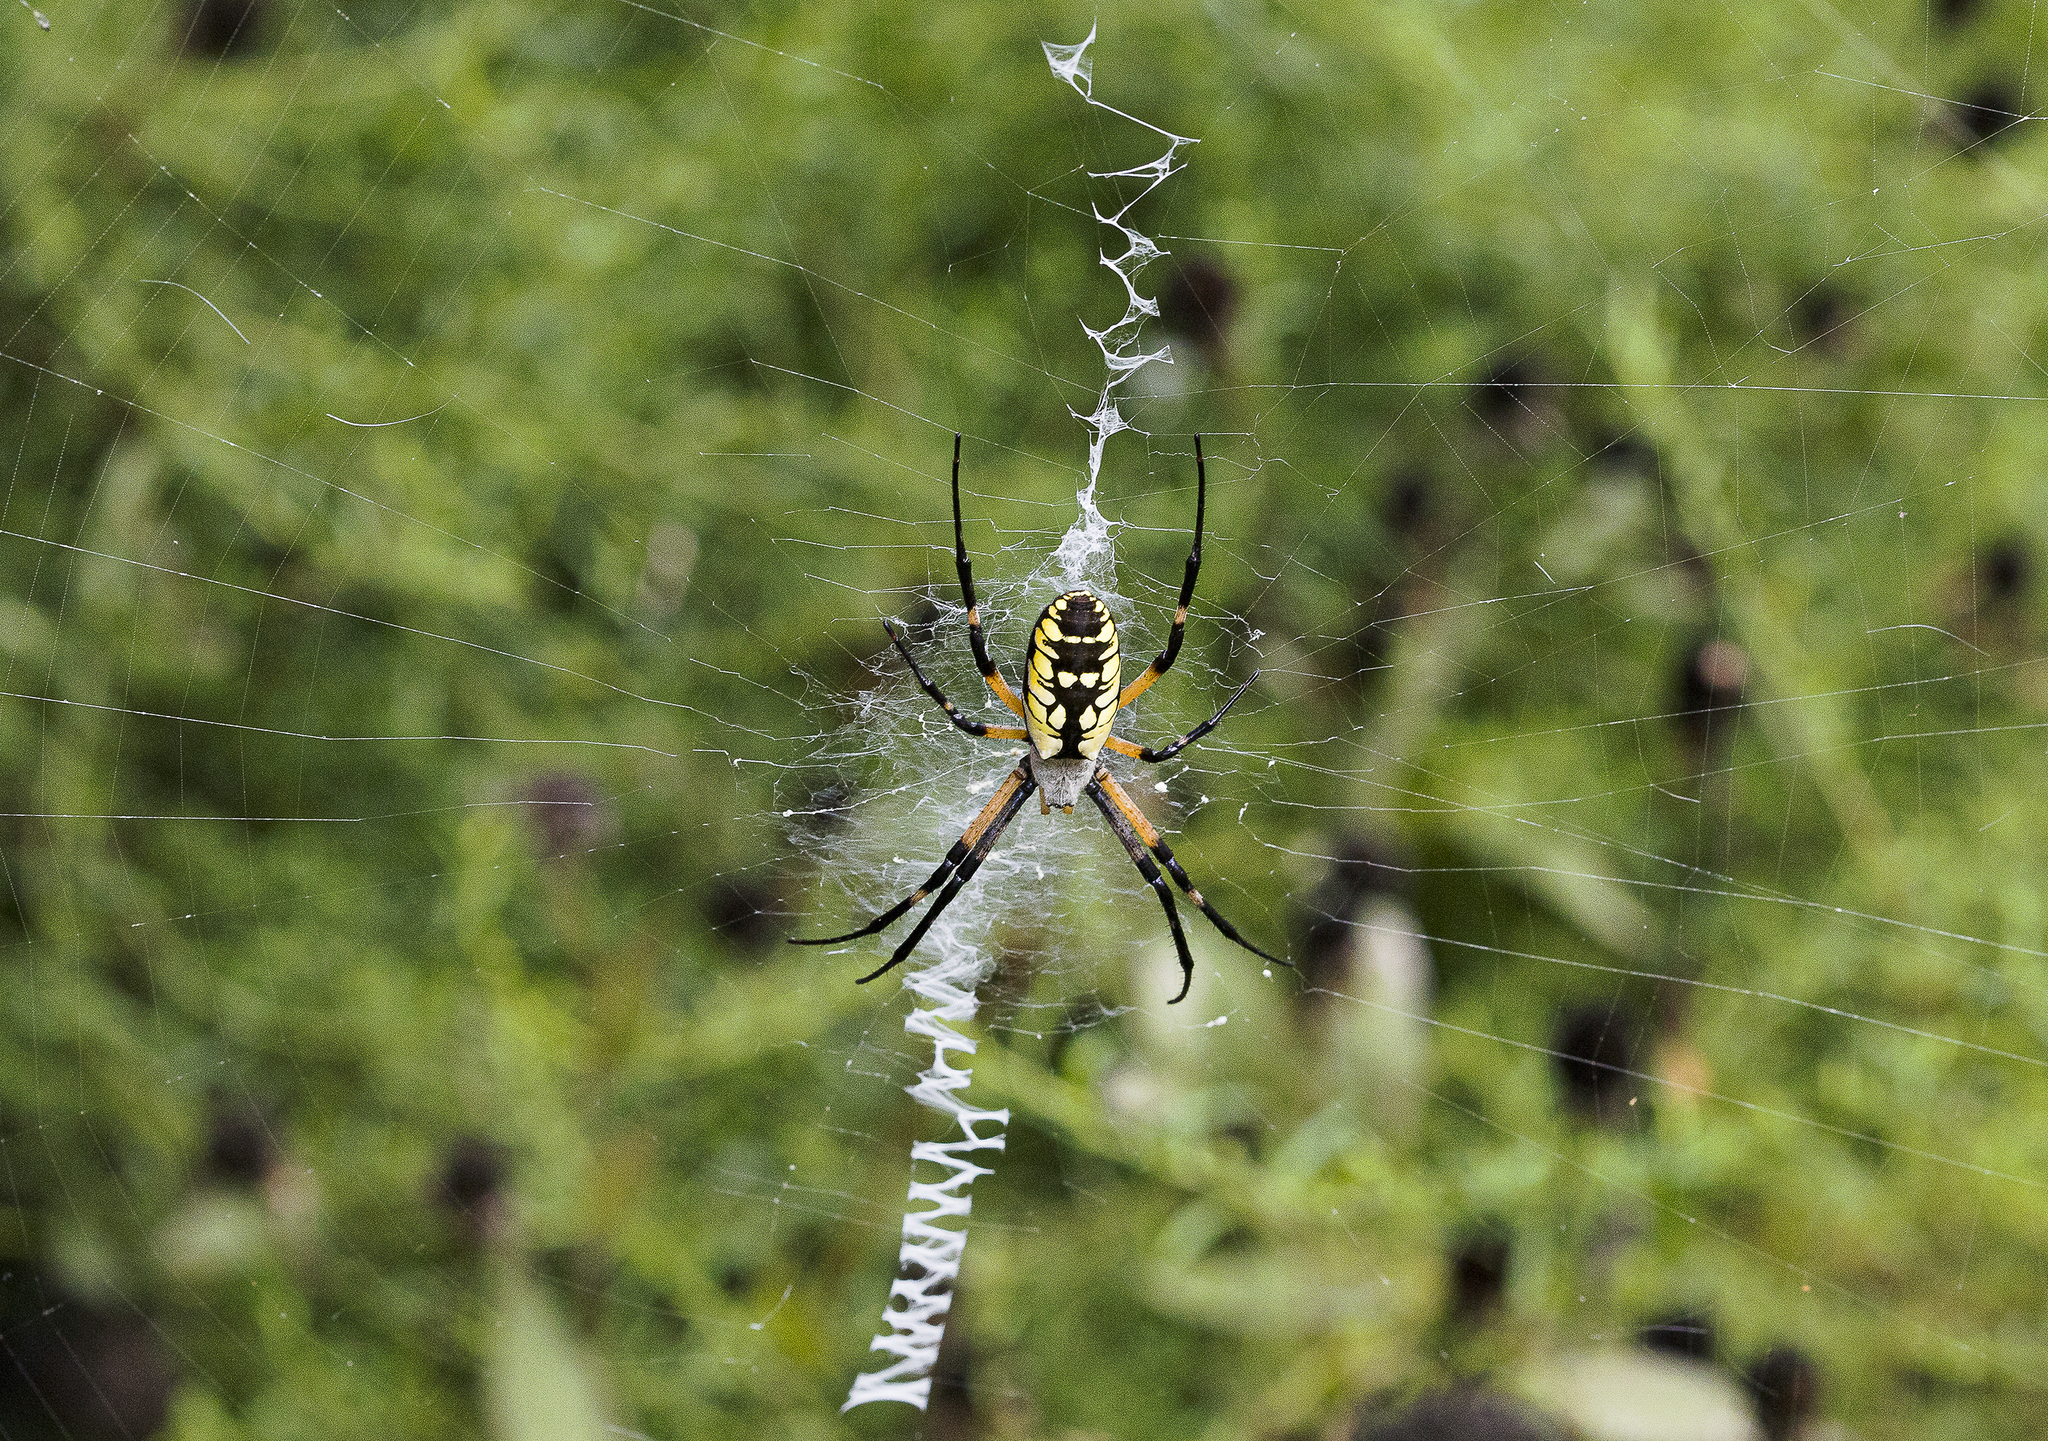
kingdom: Animalia
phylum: Arthropoda
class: Arachnida
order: Araneae
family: Araneidae
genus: Argiope
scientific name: Argiope aurantia
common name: Orb weavers
